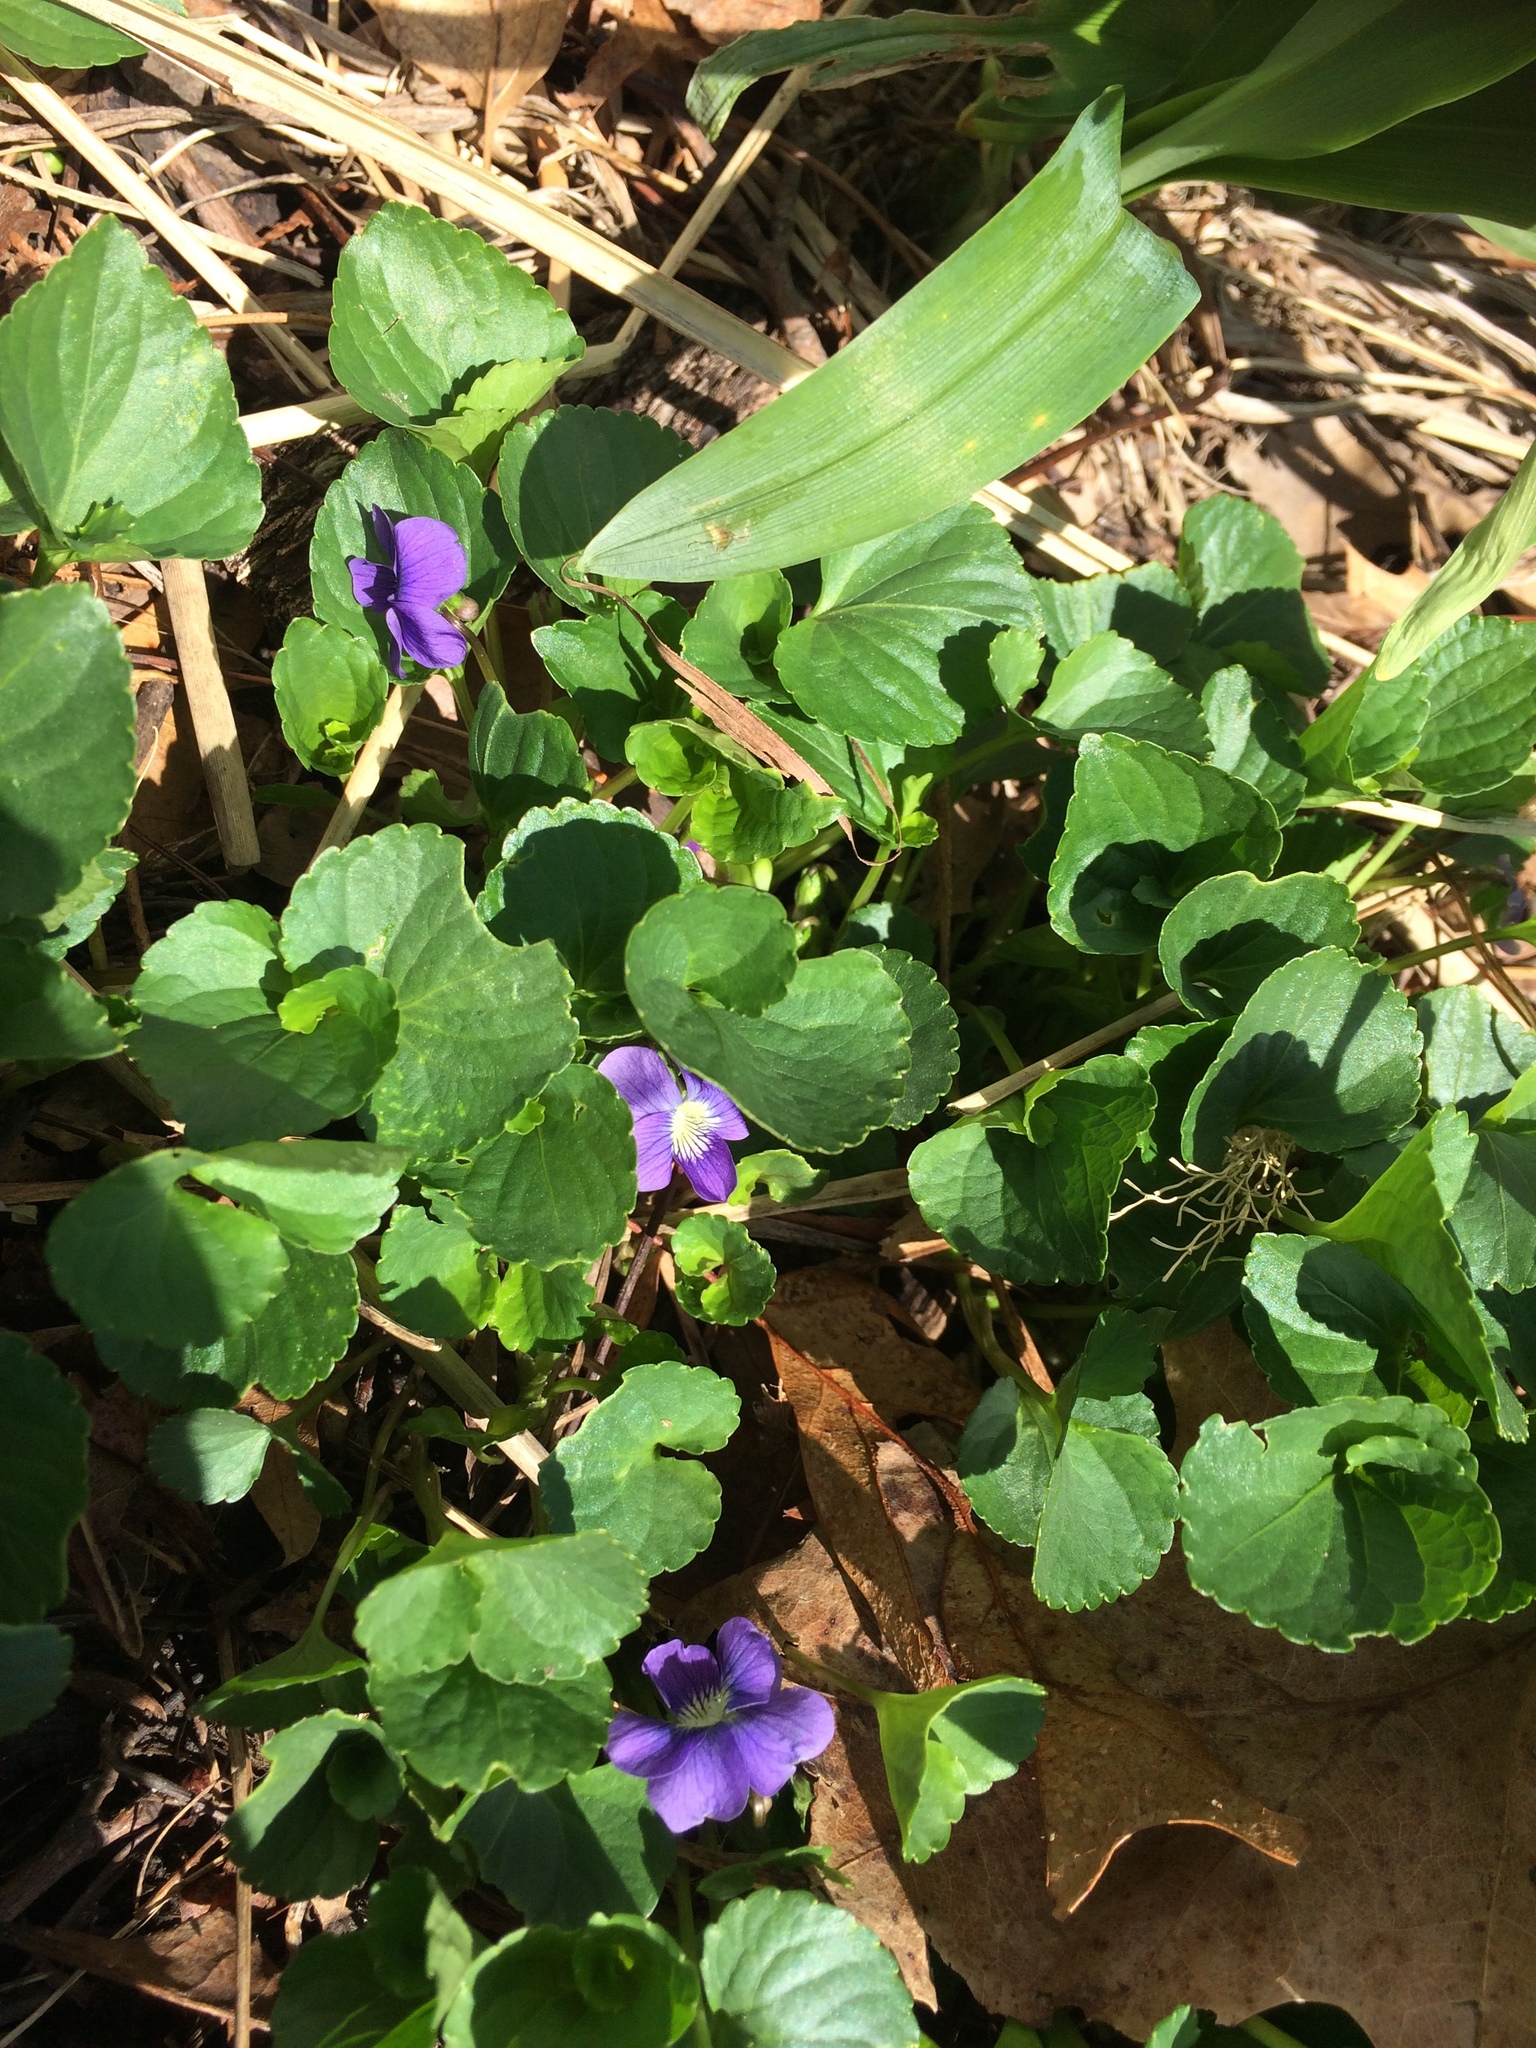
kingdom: Plantae
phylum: Tracheophyta
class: Magnoliopsida
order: Malpighiales
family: Violaceae
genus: Viola
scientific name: Viola sororia
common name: Dooryard violet
